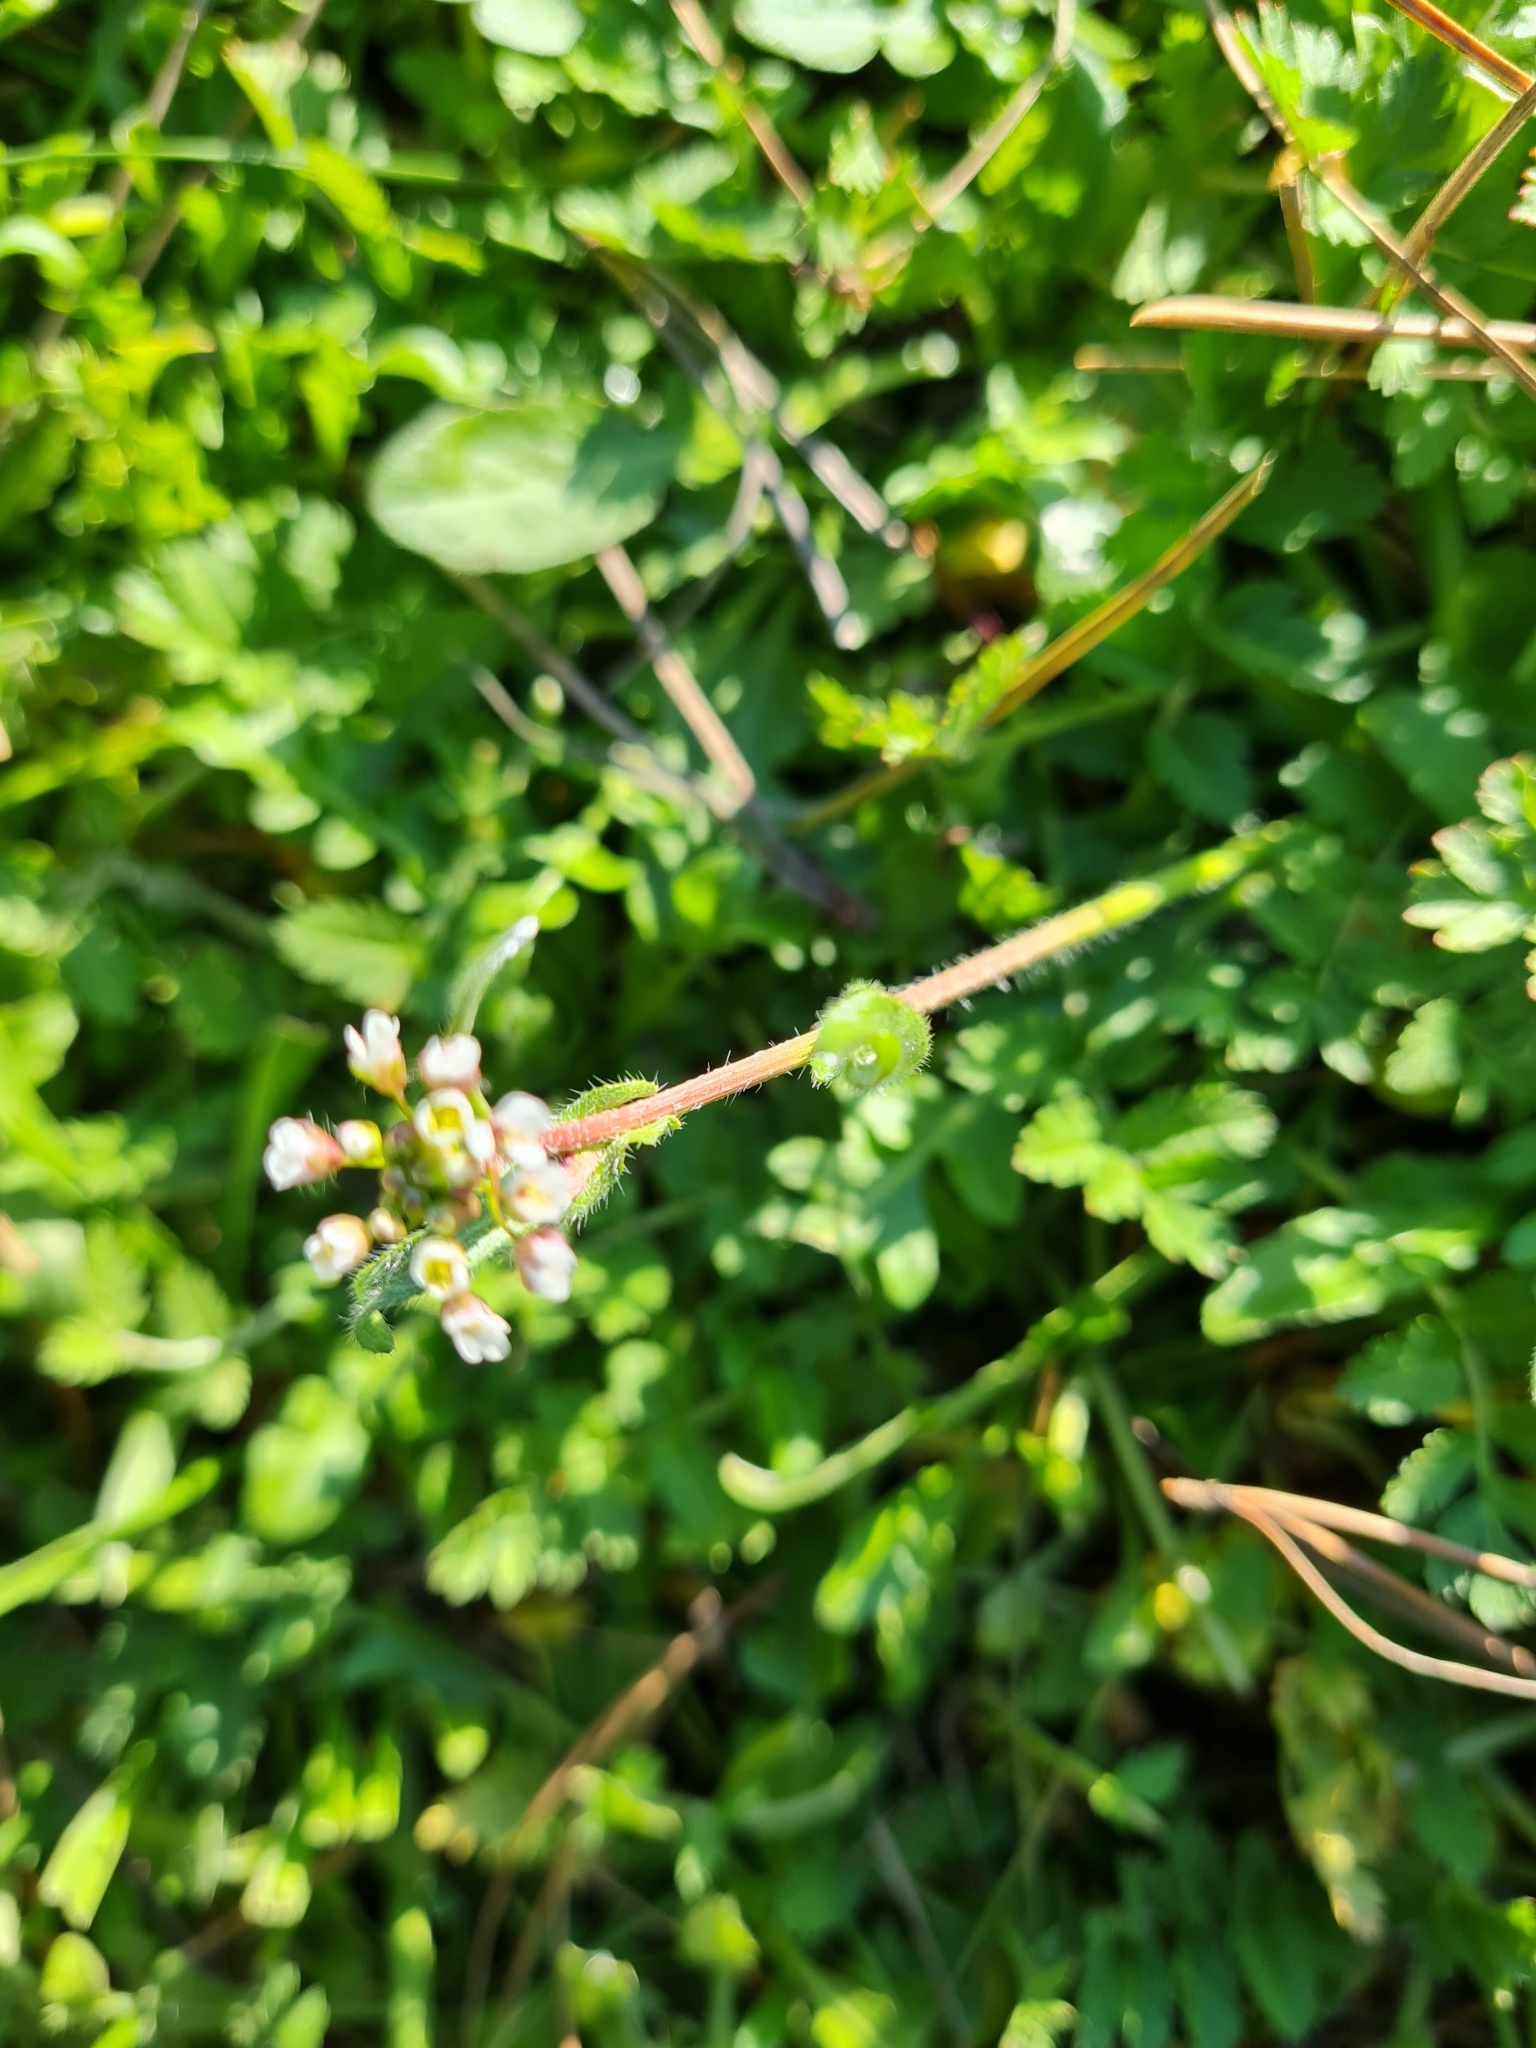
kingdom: Plantae
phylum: Tracheophyta
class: Magnoliopsida
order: Brassicales
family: Brassicaceae
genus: Capsella
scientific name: Capsella bursa-pastoris
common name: Shepherd's purse
